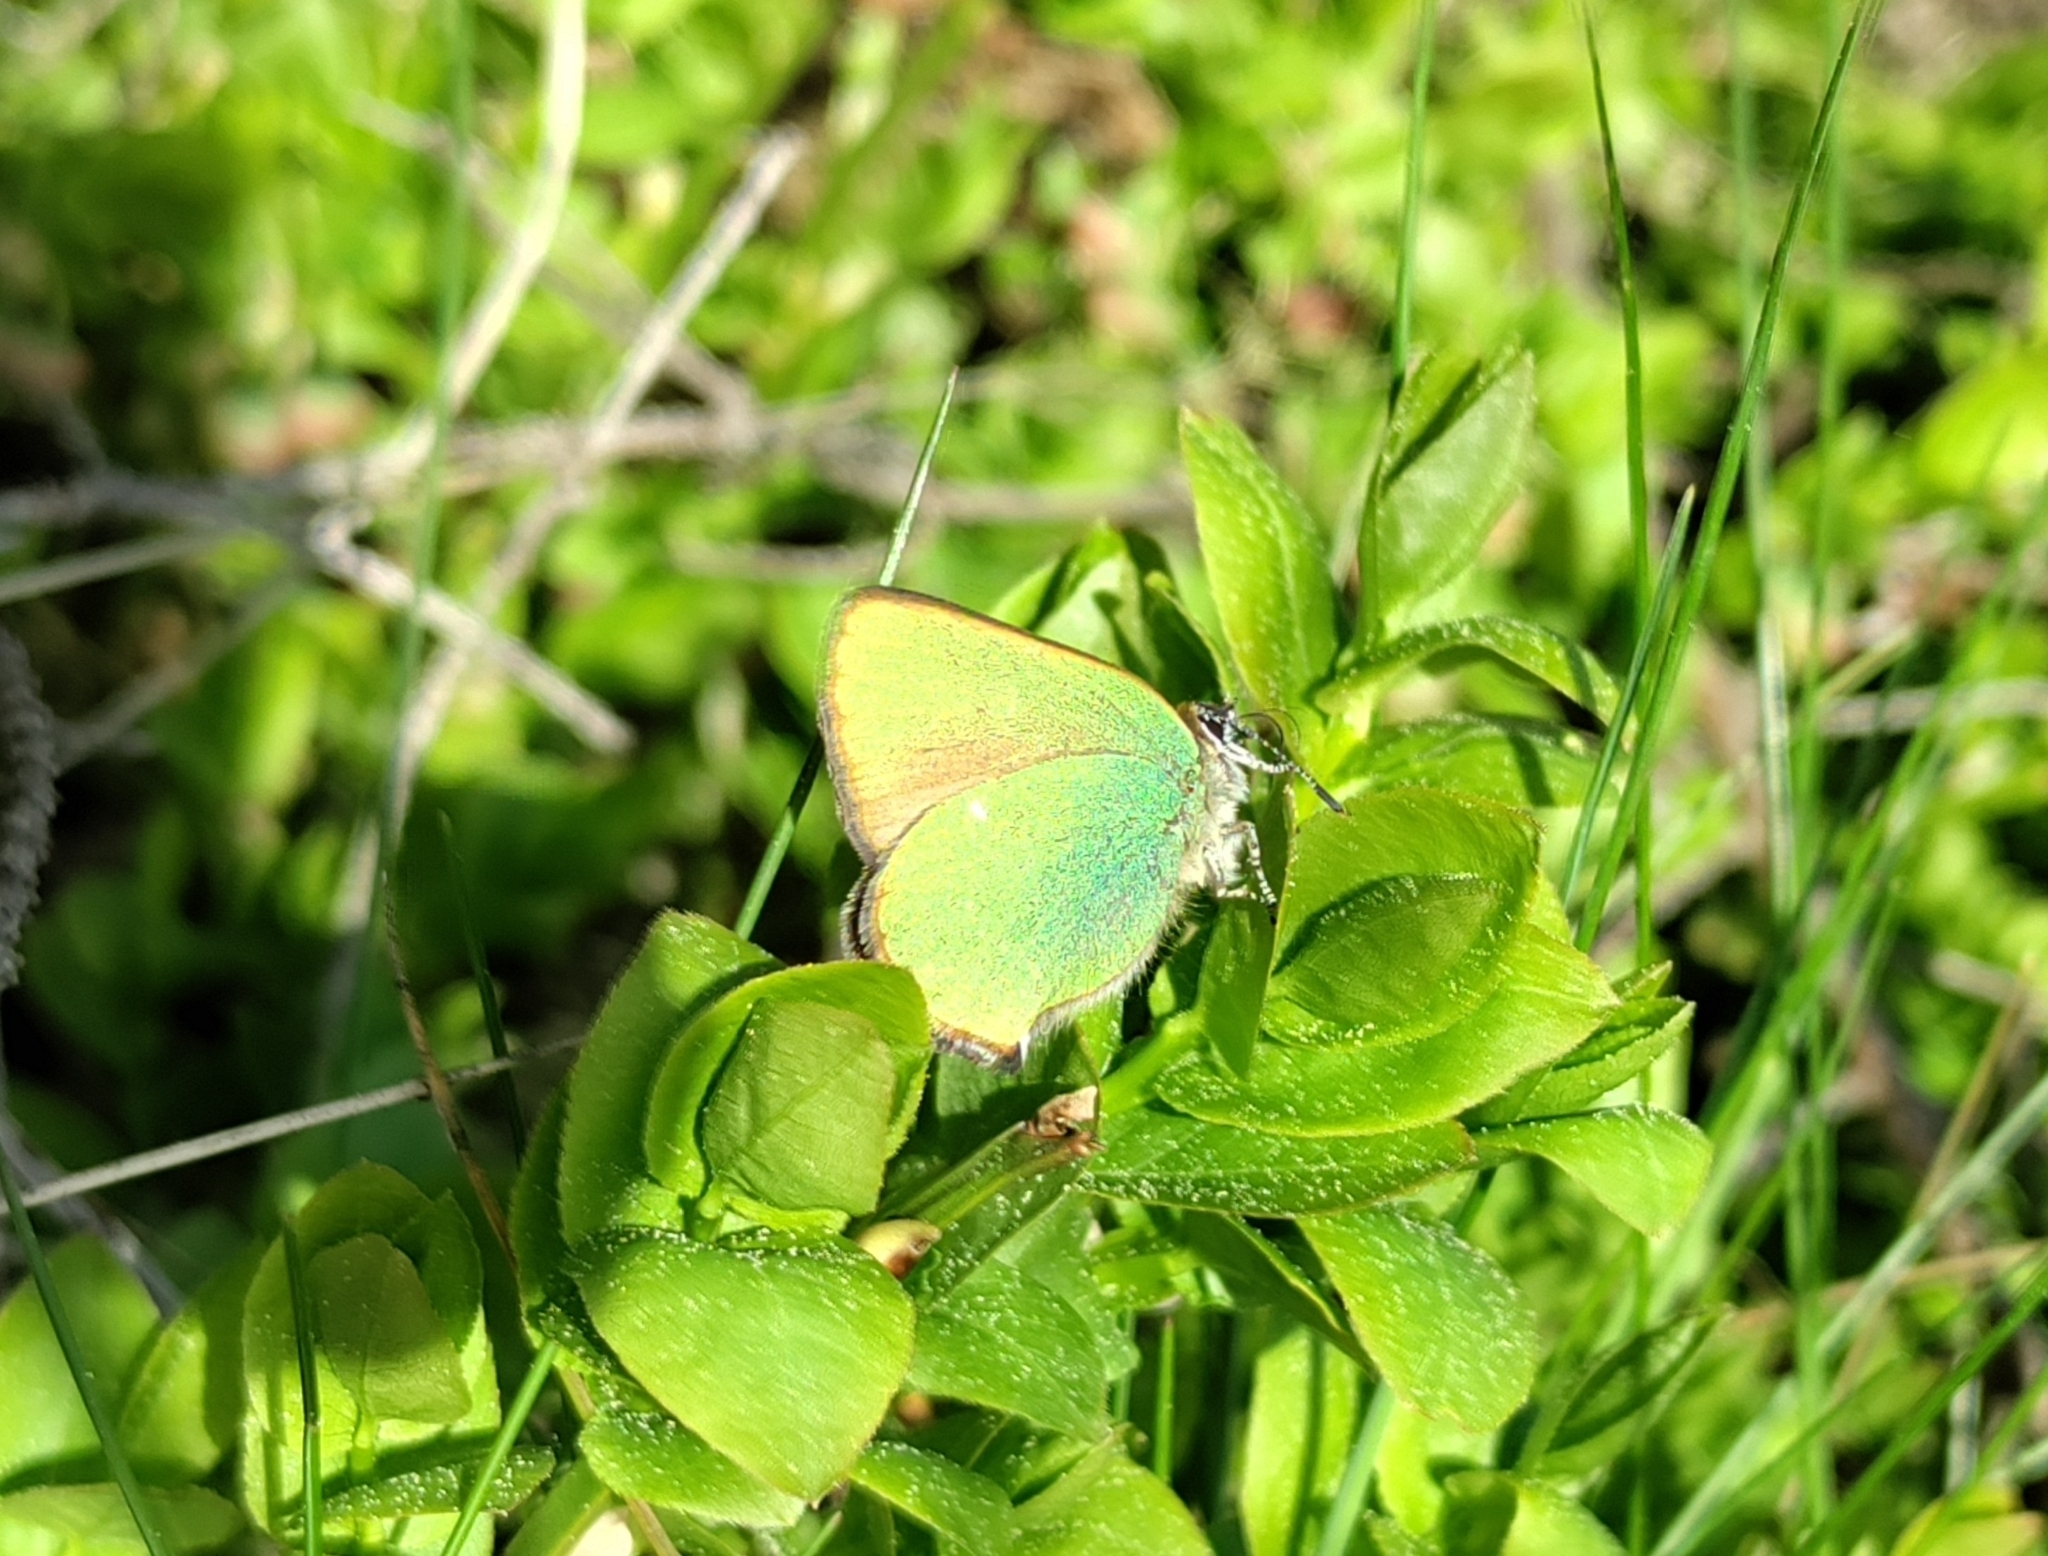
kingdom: Animalia
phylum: Arthropoda
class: Insecta
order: Lepidoptera
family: Lycaenidae
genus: Callophrys
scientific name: Callophrys rubi
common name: Green hairstreak
